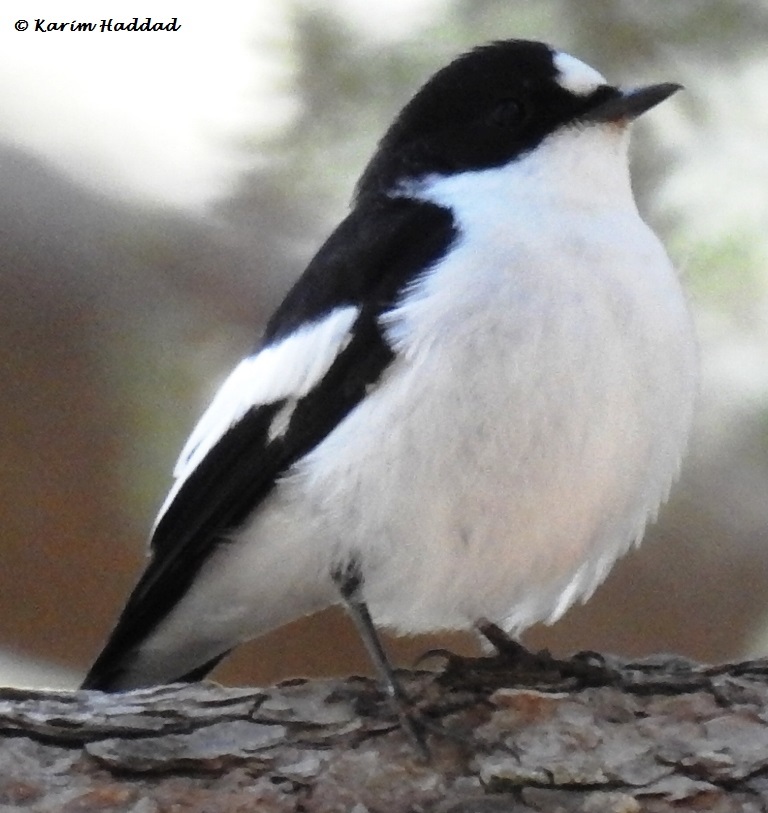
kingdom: Animalia
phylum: Chordata
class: Aves
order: Passeriformes
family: Muscicapidae
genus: Ficedula
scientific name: Ficedula speculigera
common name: Atlas pied flycatcher
